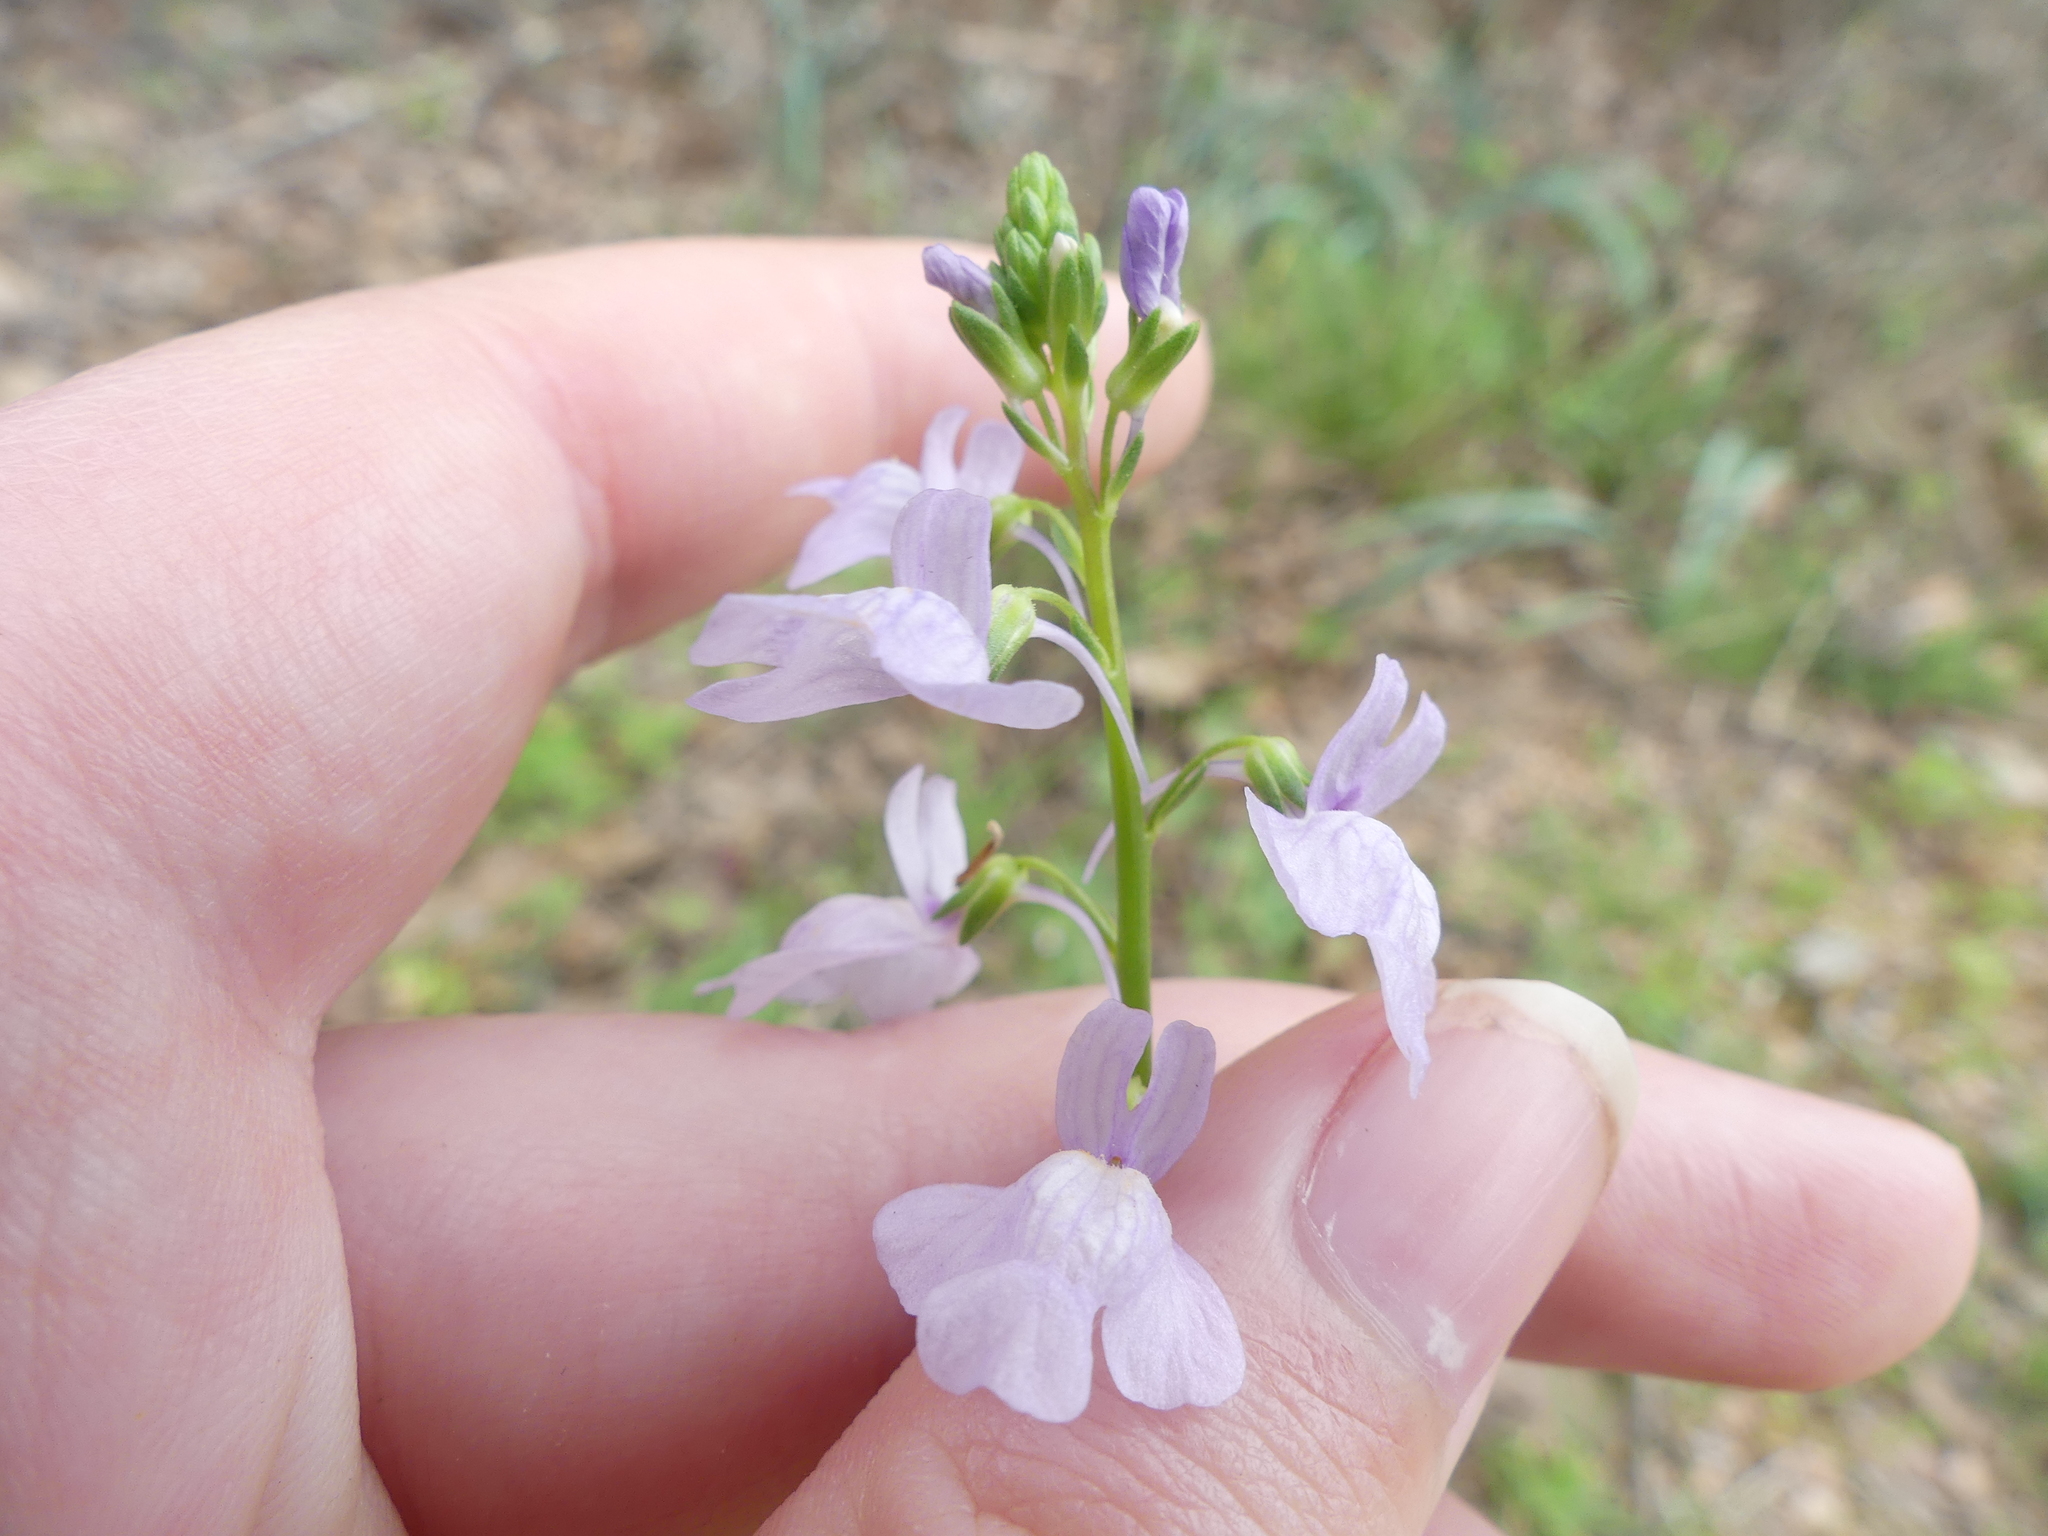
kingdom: Plantae
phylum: Tracheophyta
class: Magnoliopsida
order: Lamiales
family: Plantaginaceae
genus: Nuttallanthus
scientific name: Nuttallanthus texanus
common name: Texas toadflax
